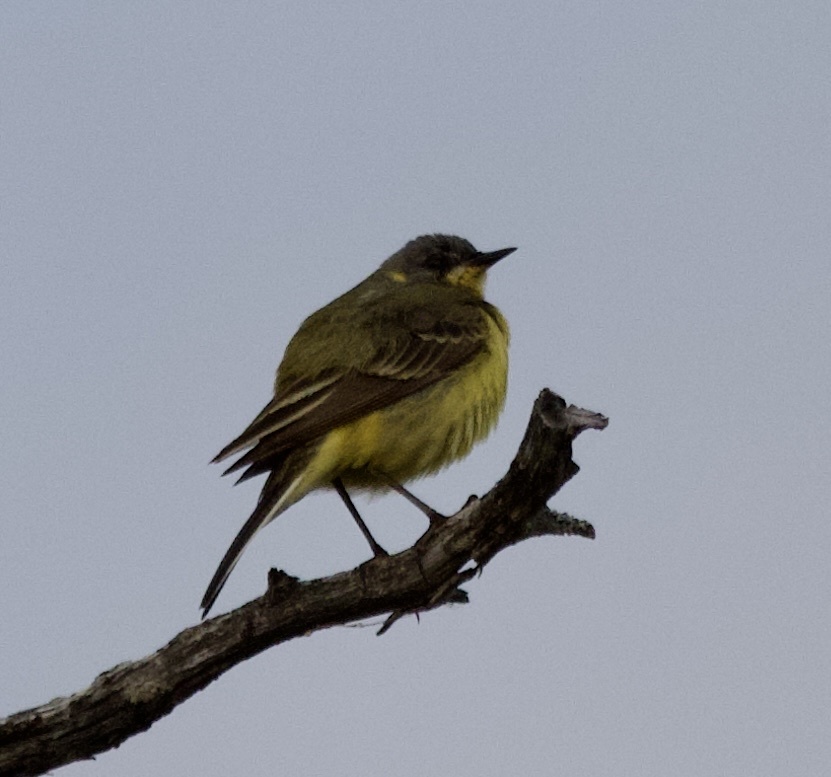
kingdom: Animalia
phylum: Chordata
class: Aves
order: Passeriformes
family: Motacillidae
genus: Motacilla
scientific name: Motacilla flava
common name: Western yellow wagtail
